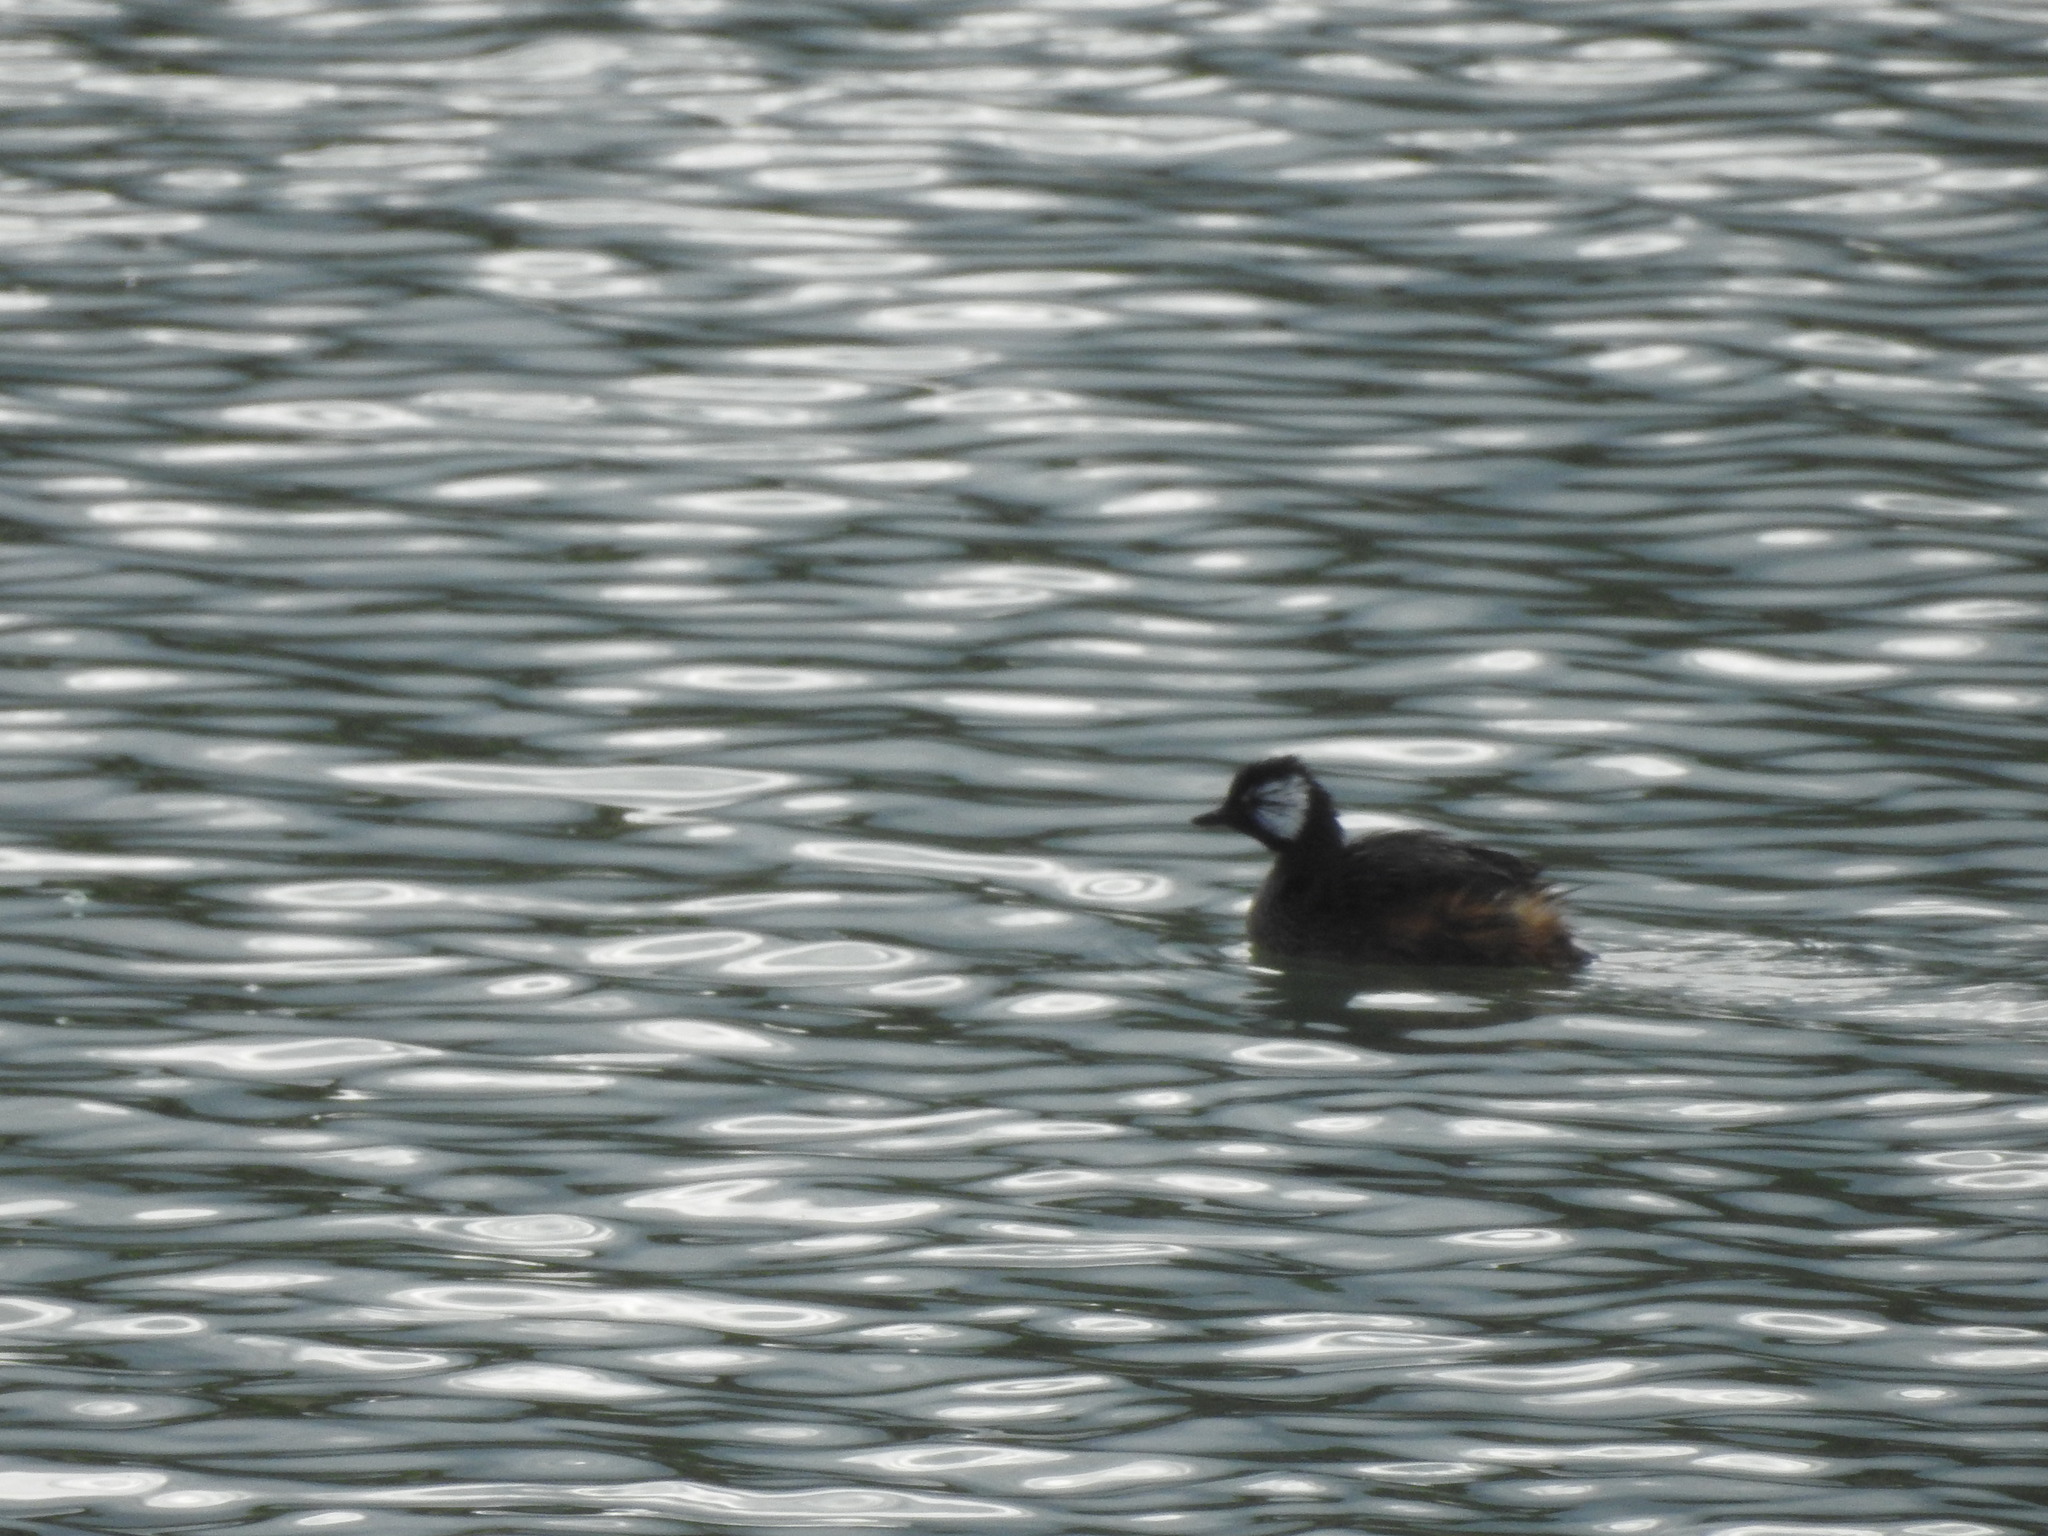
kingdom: Animalia
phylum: Chordata
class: Aves
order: Podicipediformes
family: Podicipedidae
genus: Rollandia
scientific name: Rollandia rolland
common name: White-tufted grebe
